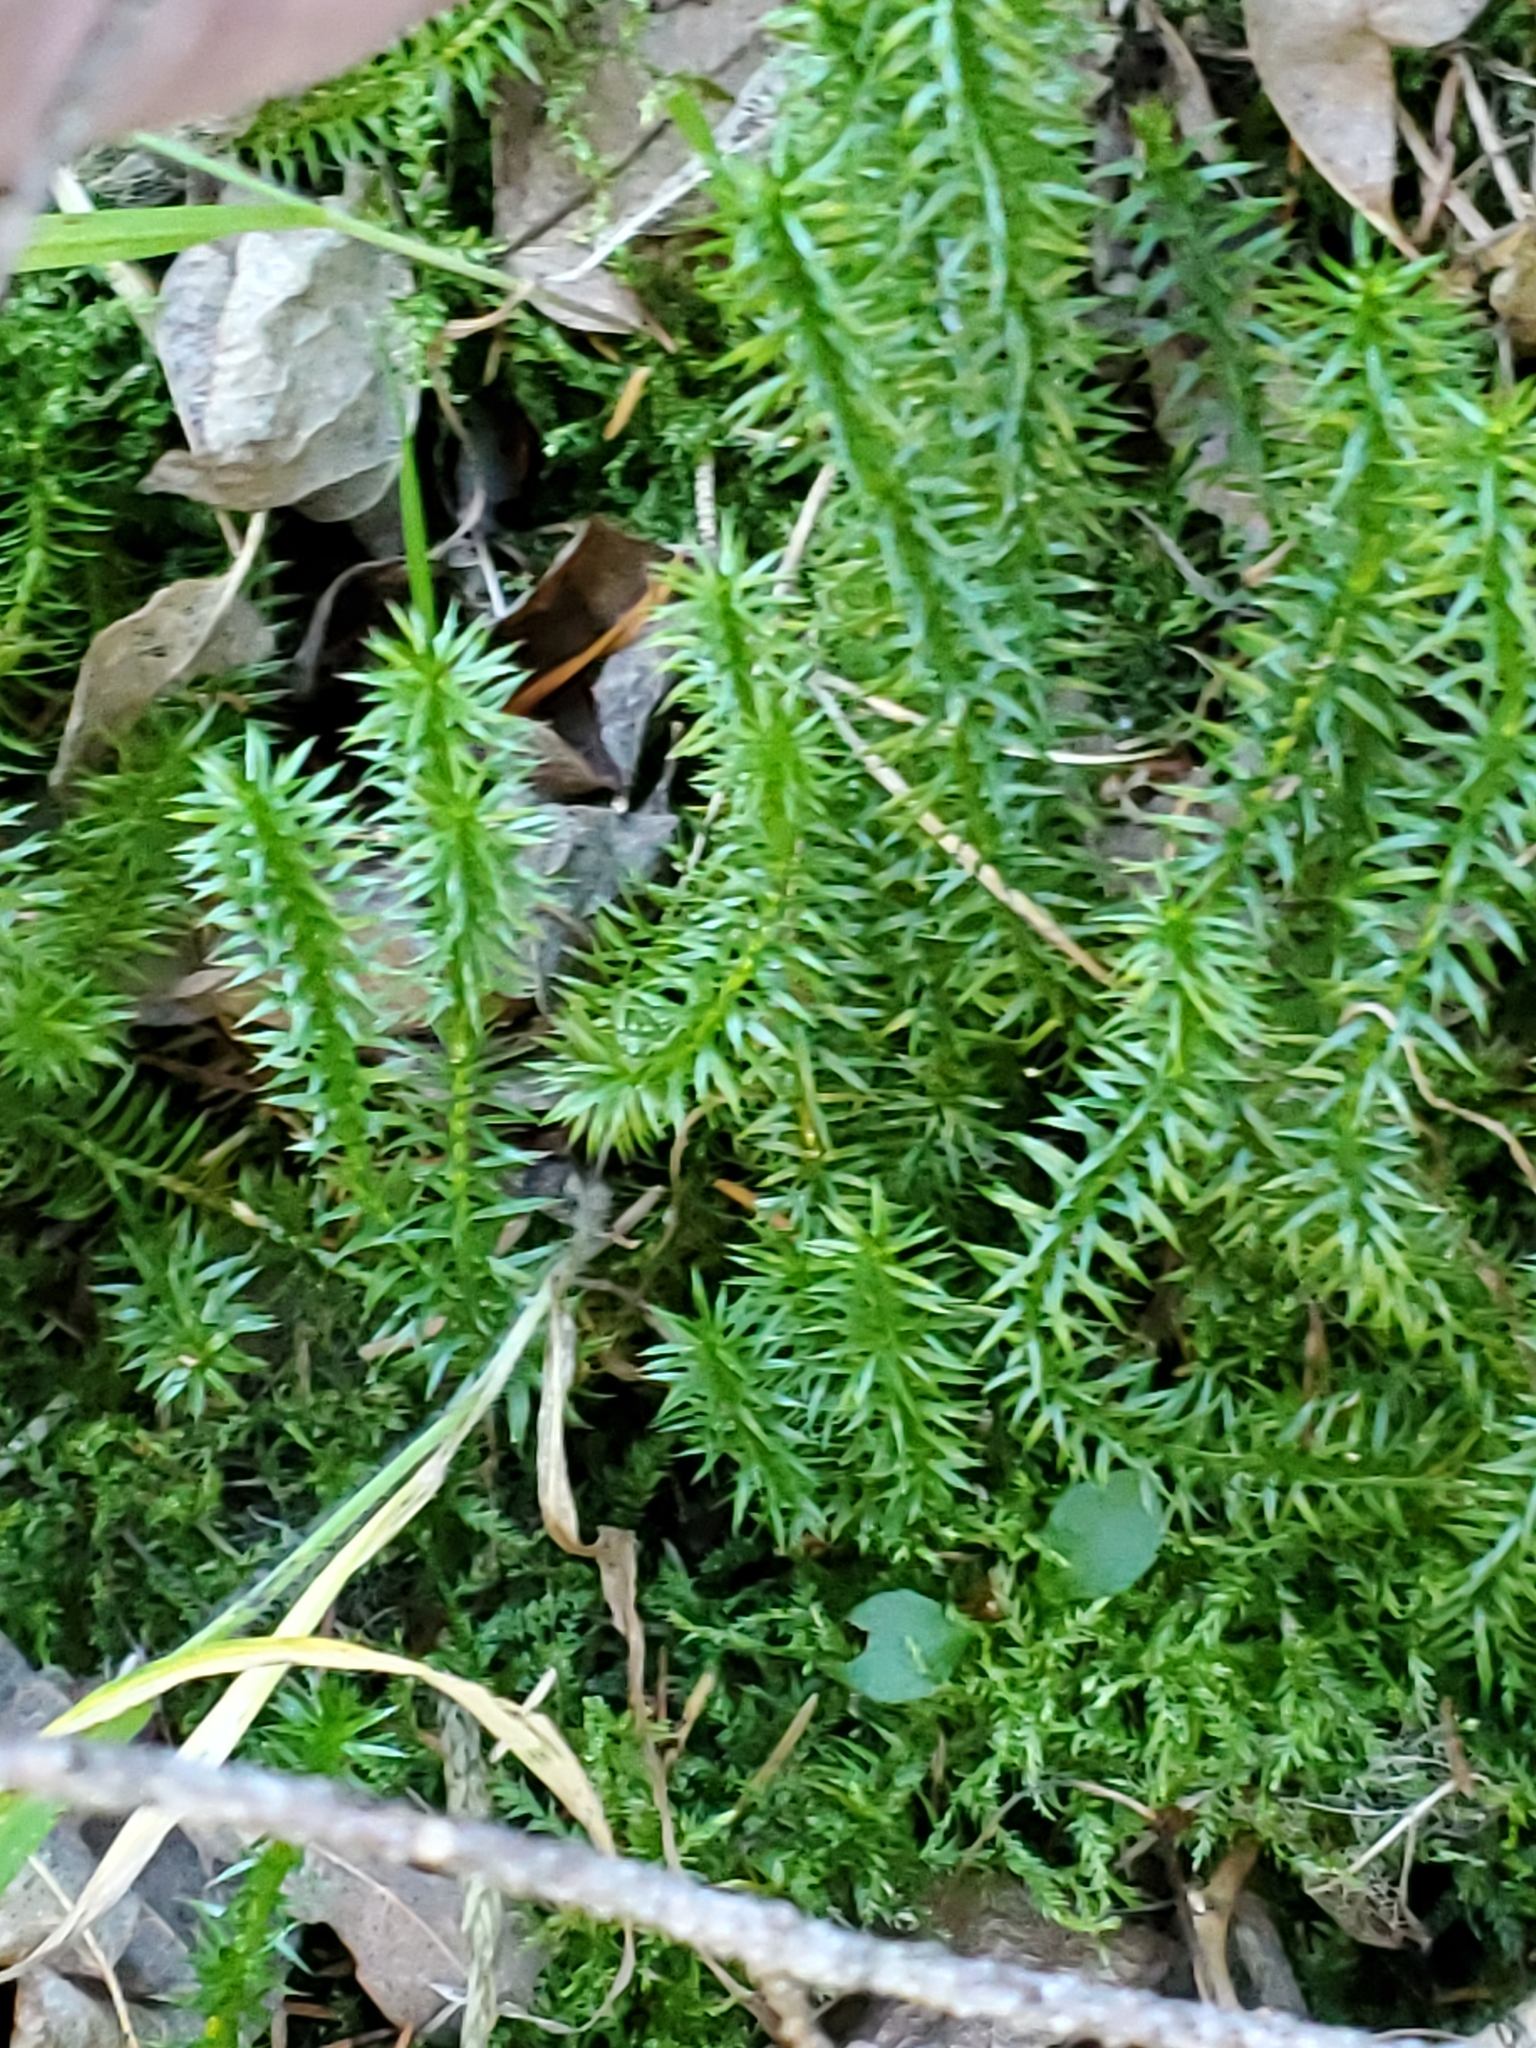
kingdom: Plantae
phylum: Tracheophyta
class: Lycopodiopsida
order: Lycopodiales
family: Lycopodiaceae
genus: Spinulum
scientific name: Spinulum annotinum
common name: Interrupted club-moss
